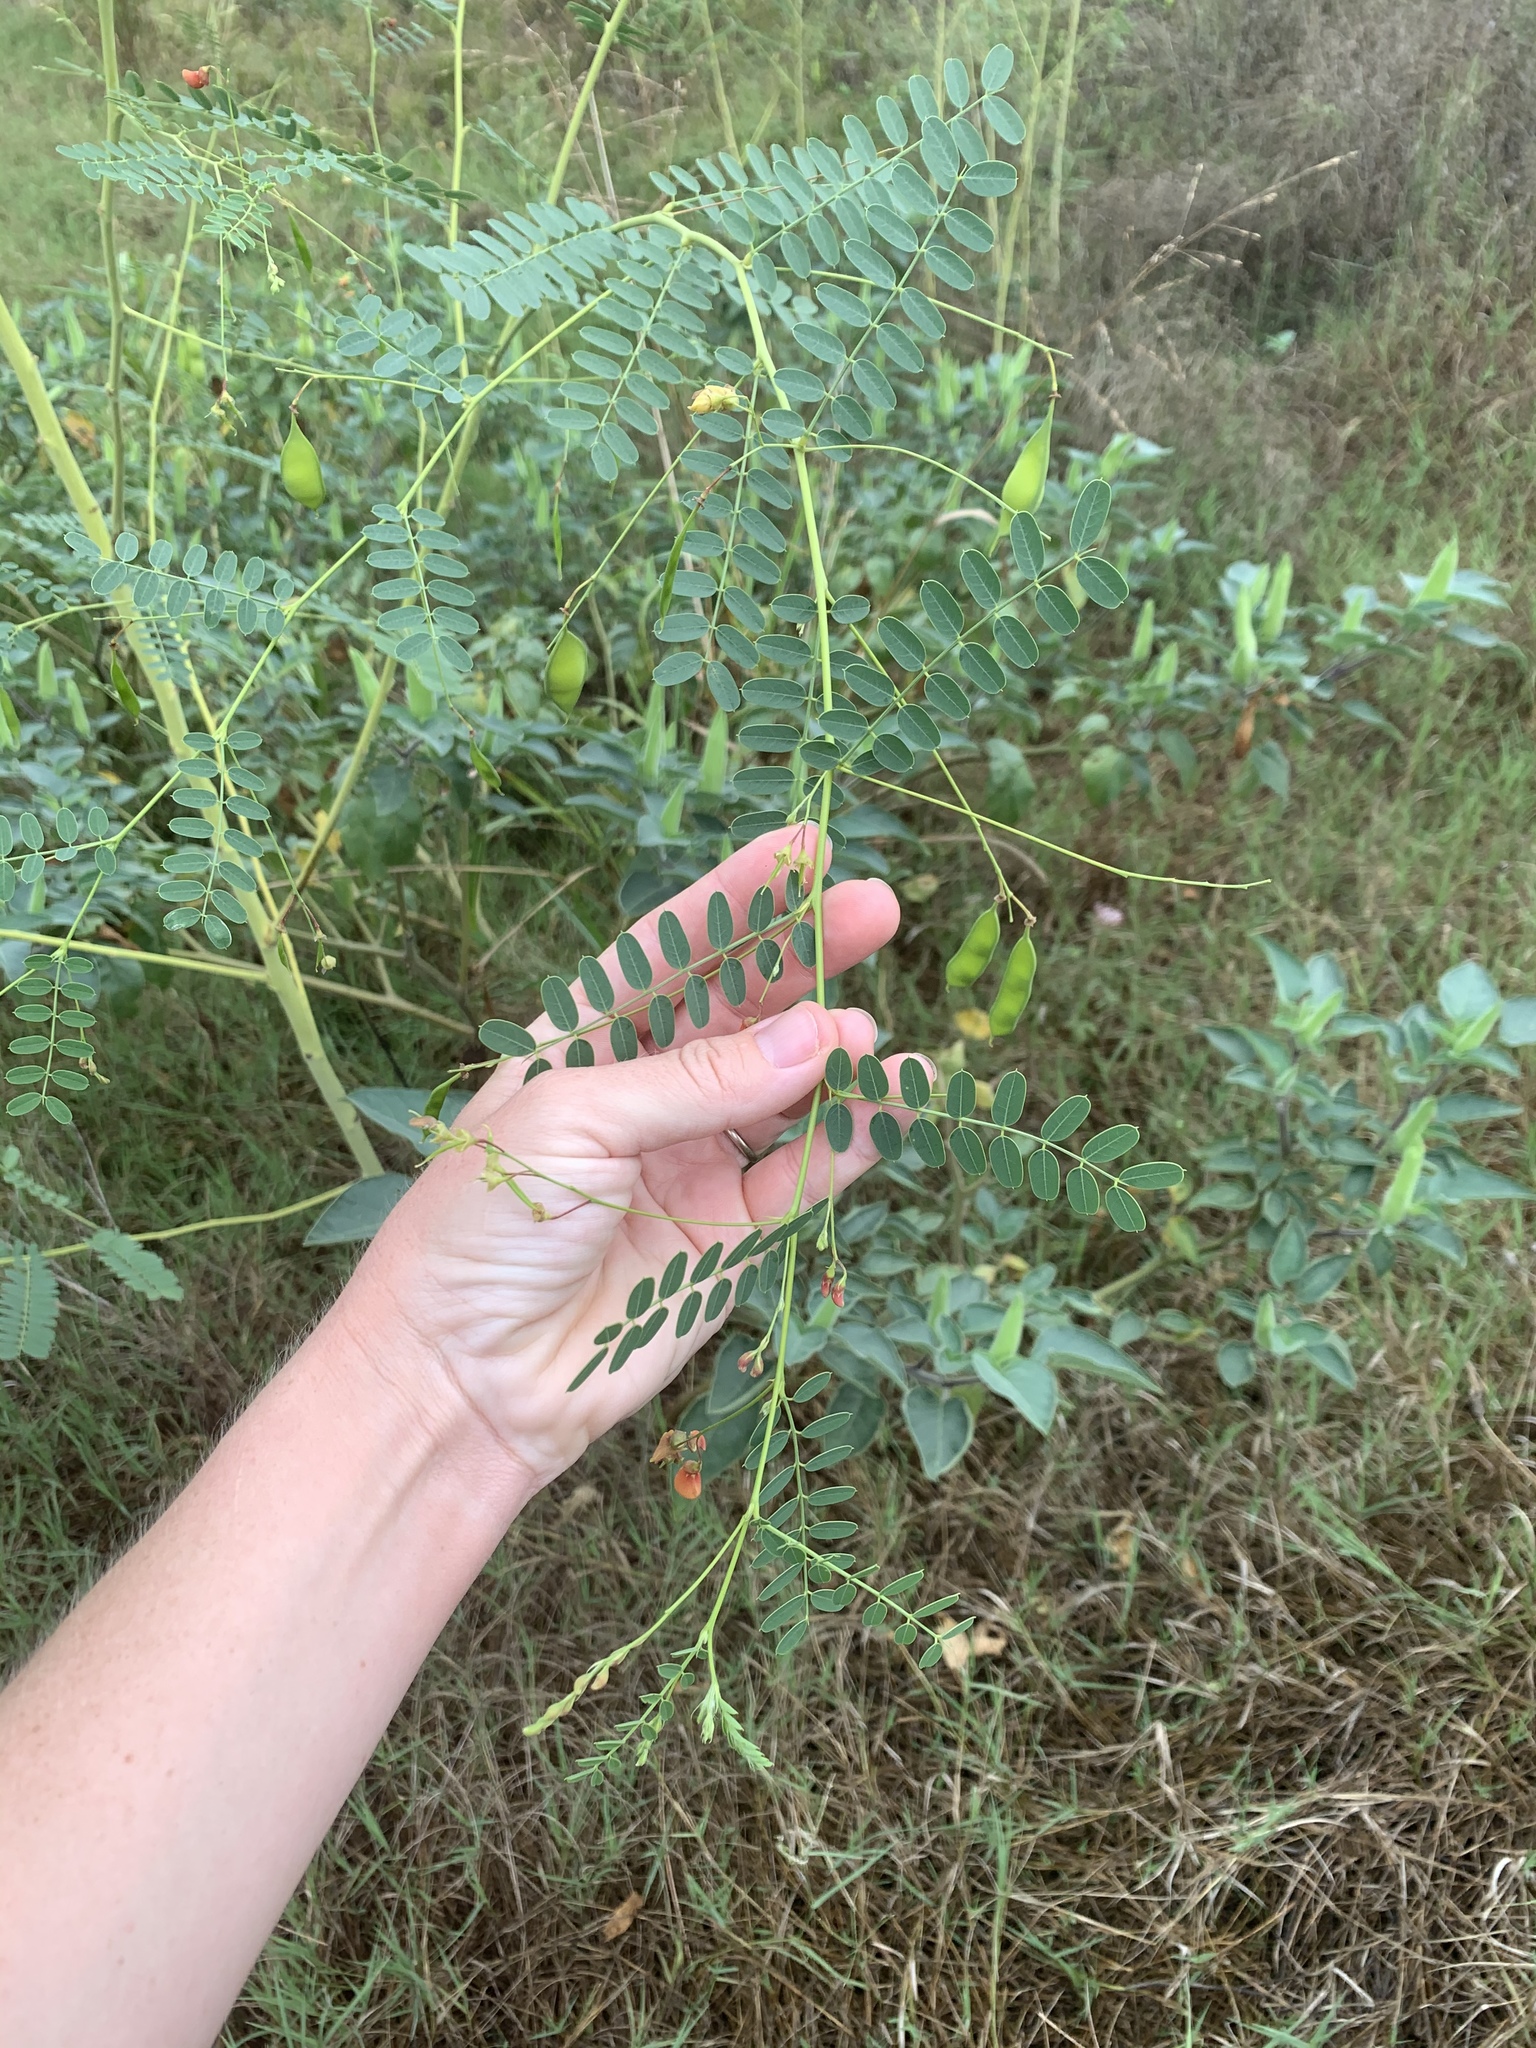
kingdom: Plantae
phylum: Tracheophyta
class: Magnoliopsida
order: Fabales
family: Fabaceae
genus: Sesbania
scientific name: Sesbania vesicaria
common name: Bagpod
